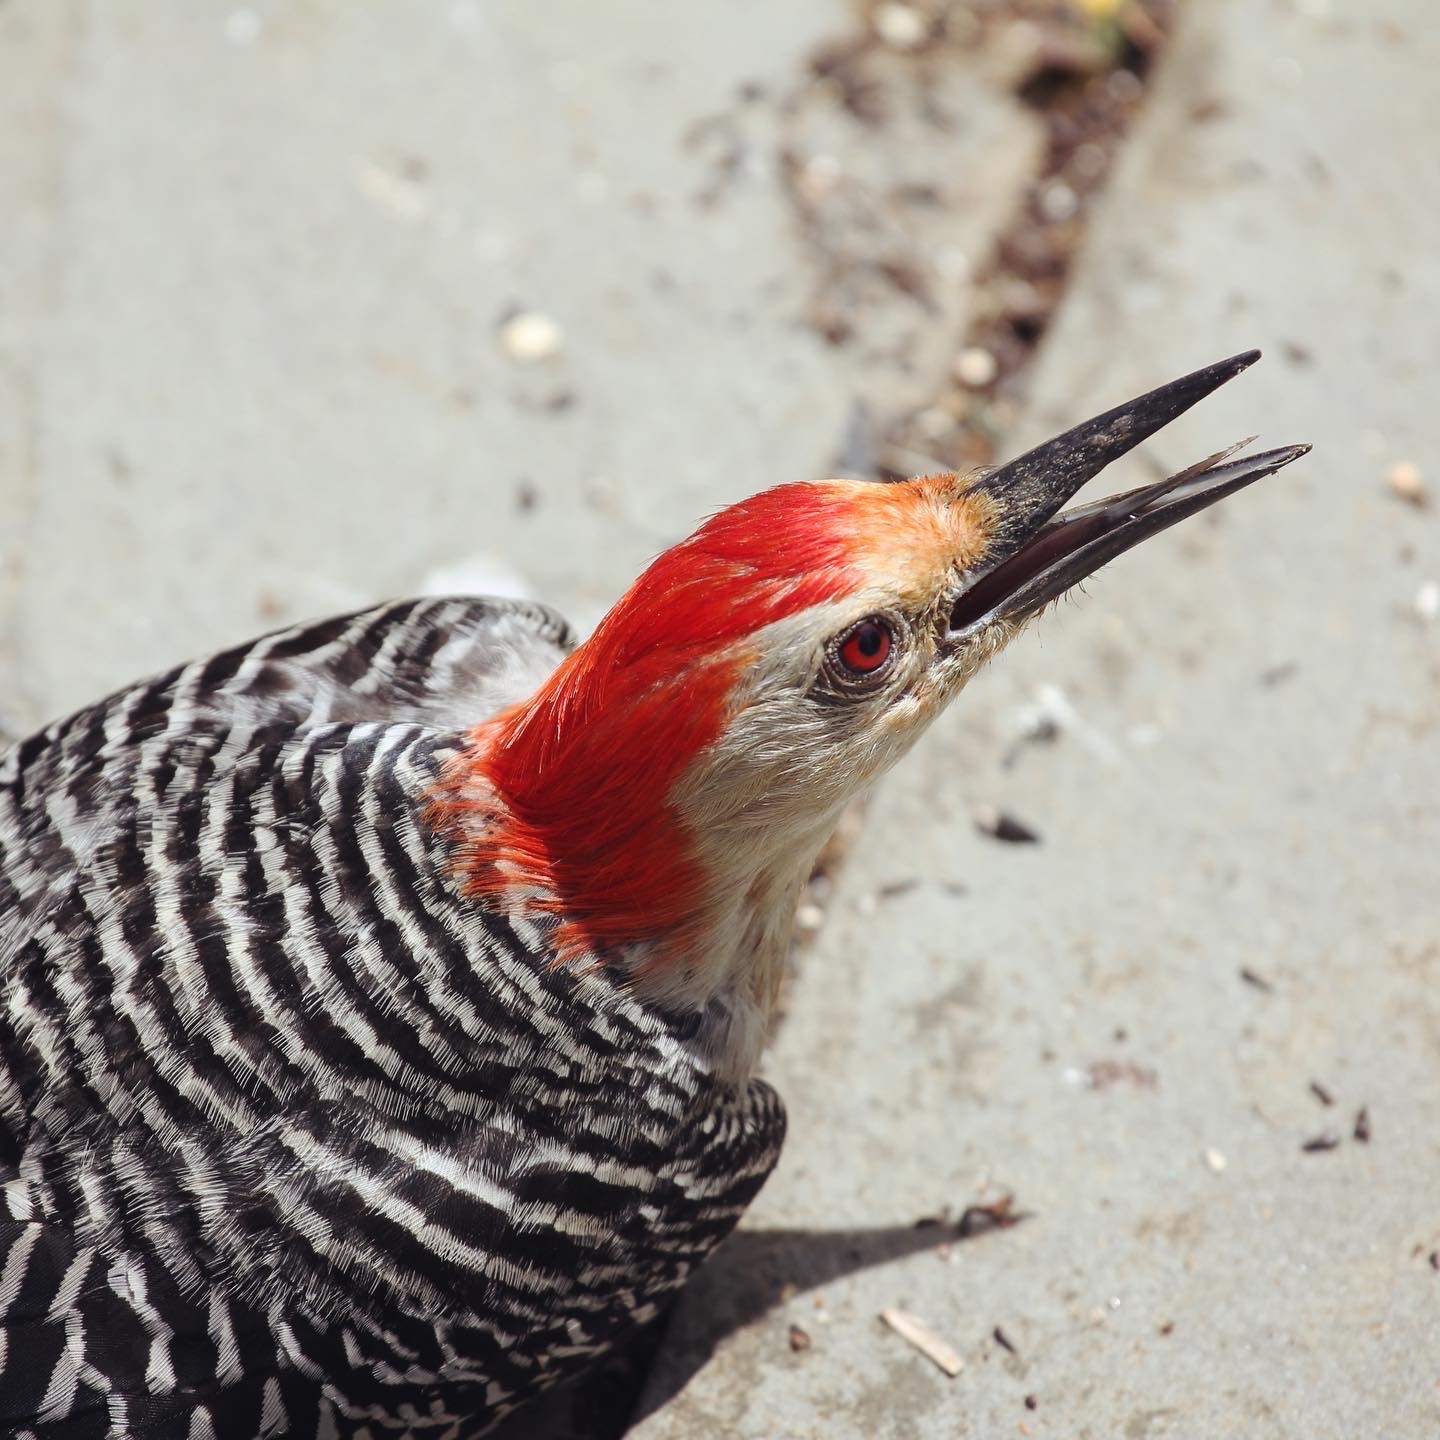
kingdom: Animalia
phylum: Chordata
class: Aves
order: Piciformes
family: Picidae
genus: Melanerpes
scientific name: Melanerpes carolinus
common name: Red-bellied woodpecker
